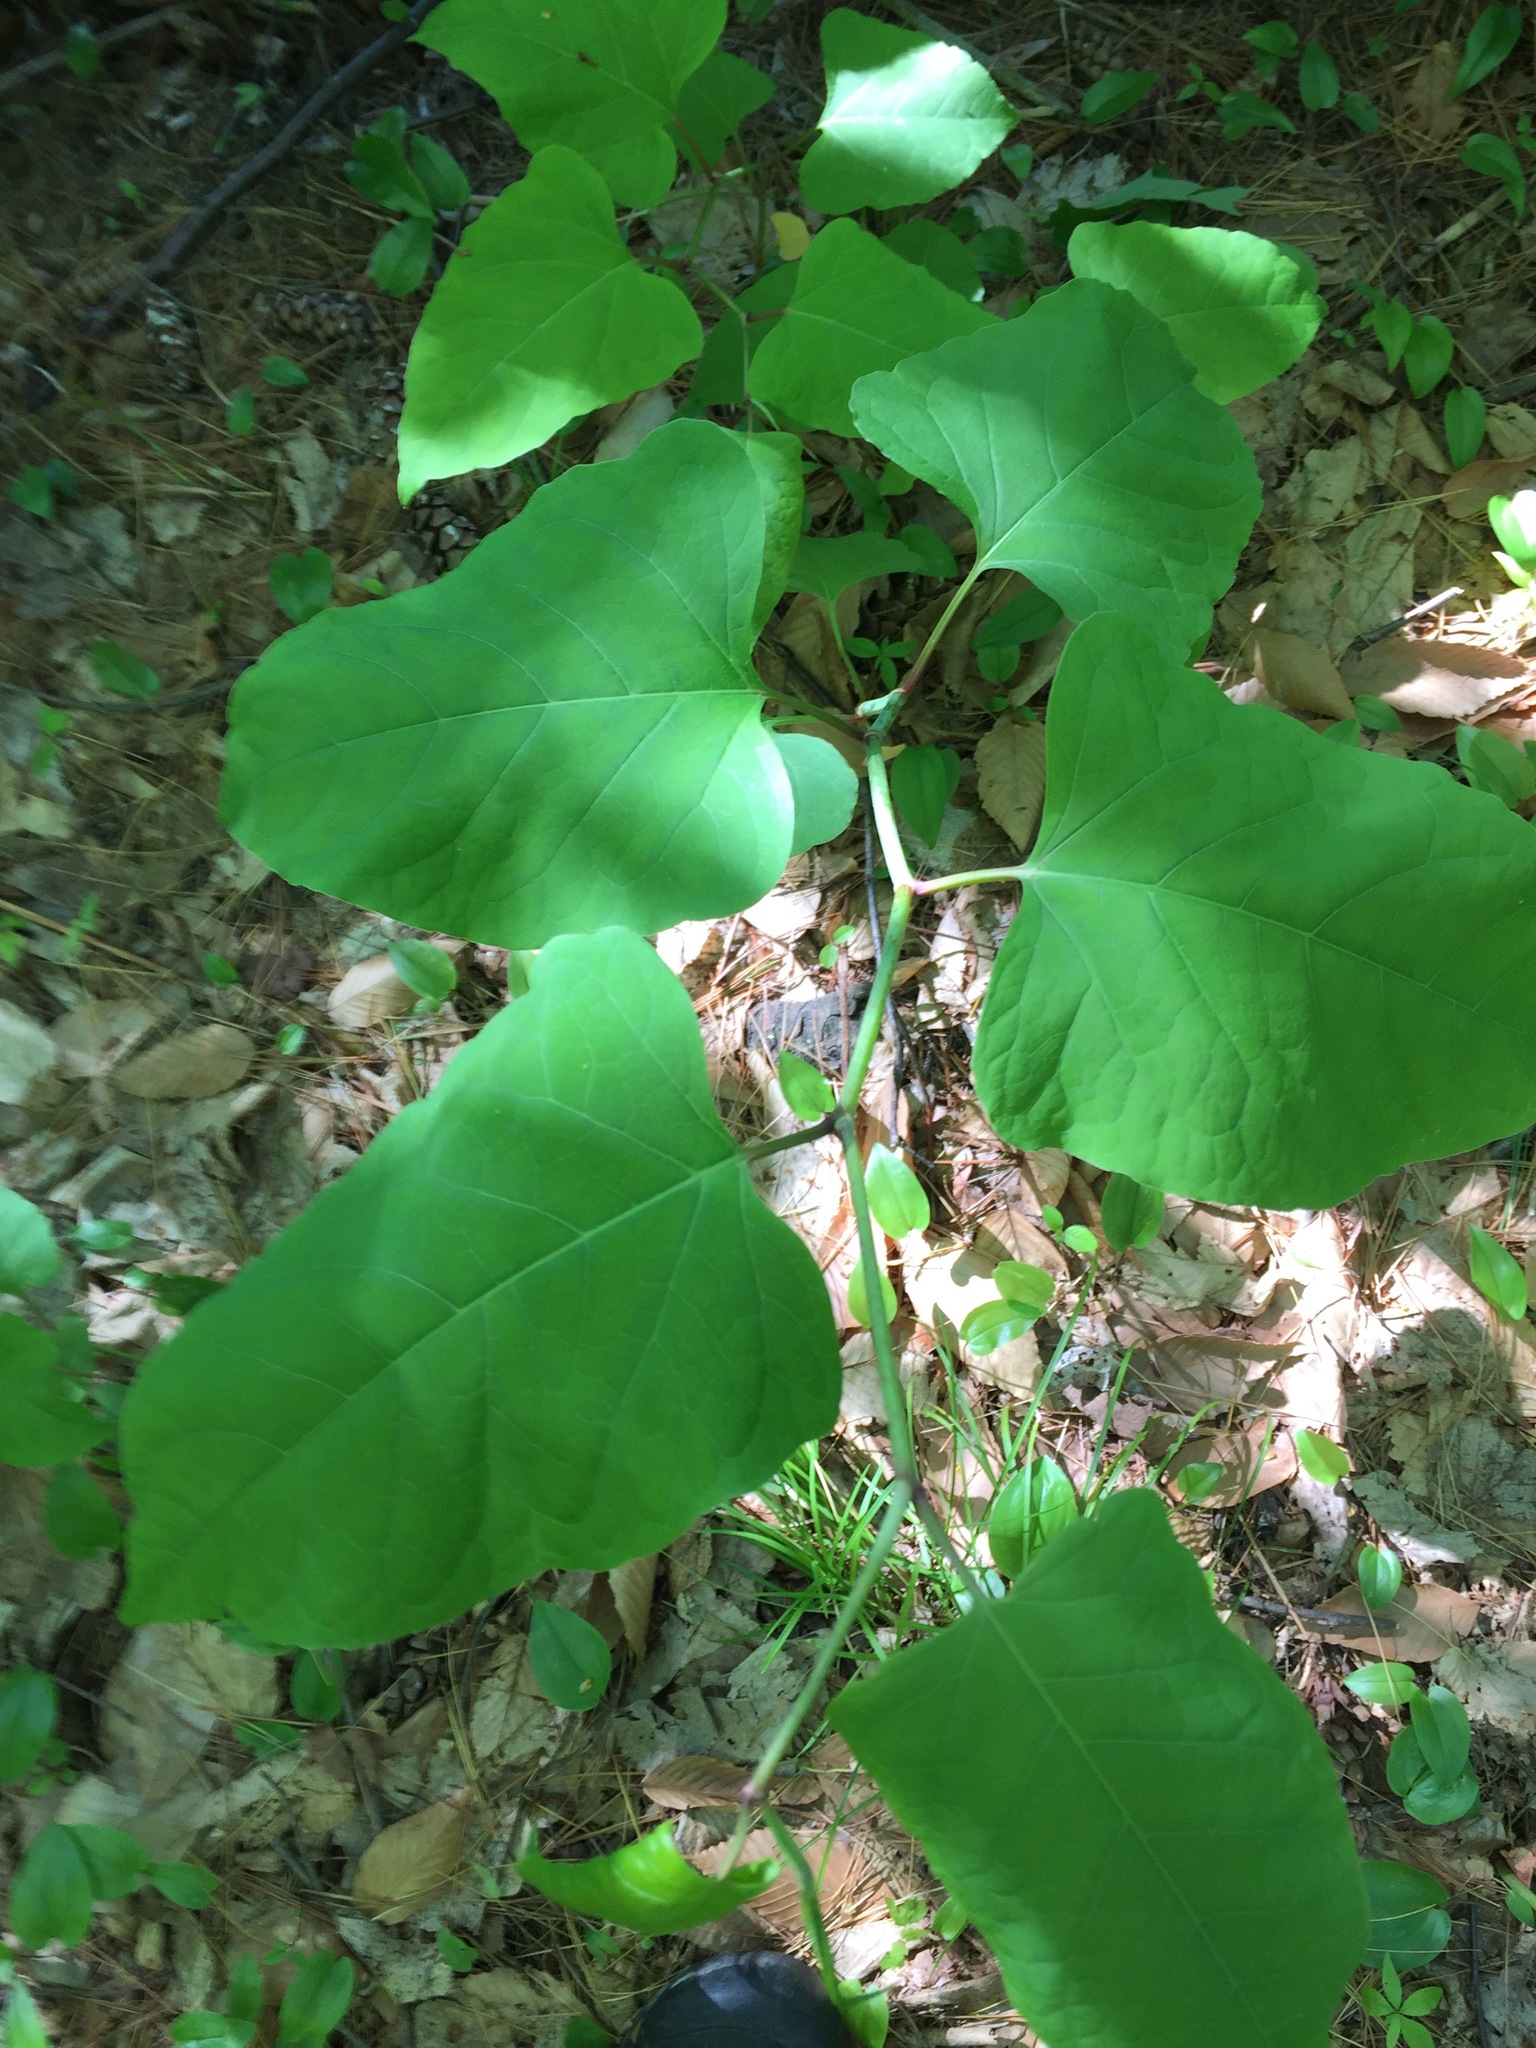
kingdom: Plantae
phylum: Tracheophyta
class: Magnoliopsida
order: Caryophyllales
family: Polygonaceae
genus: Reynoutria
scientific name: Reynoutria japonica
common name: Japanese knotweed
